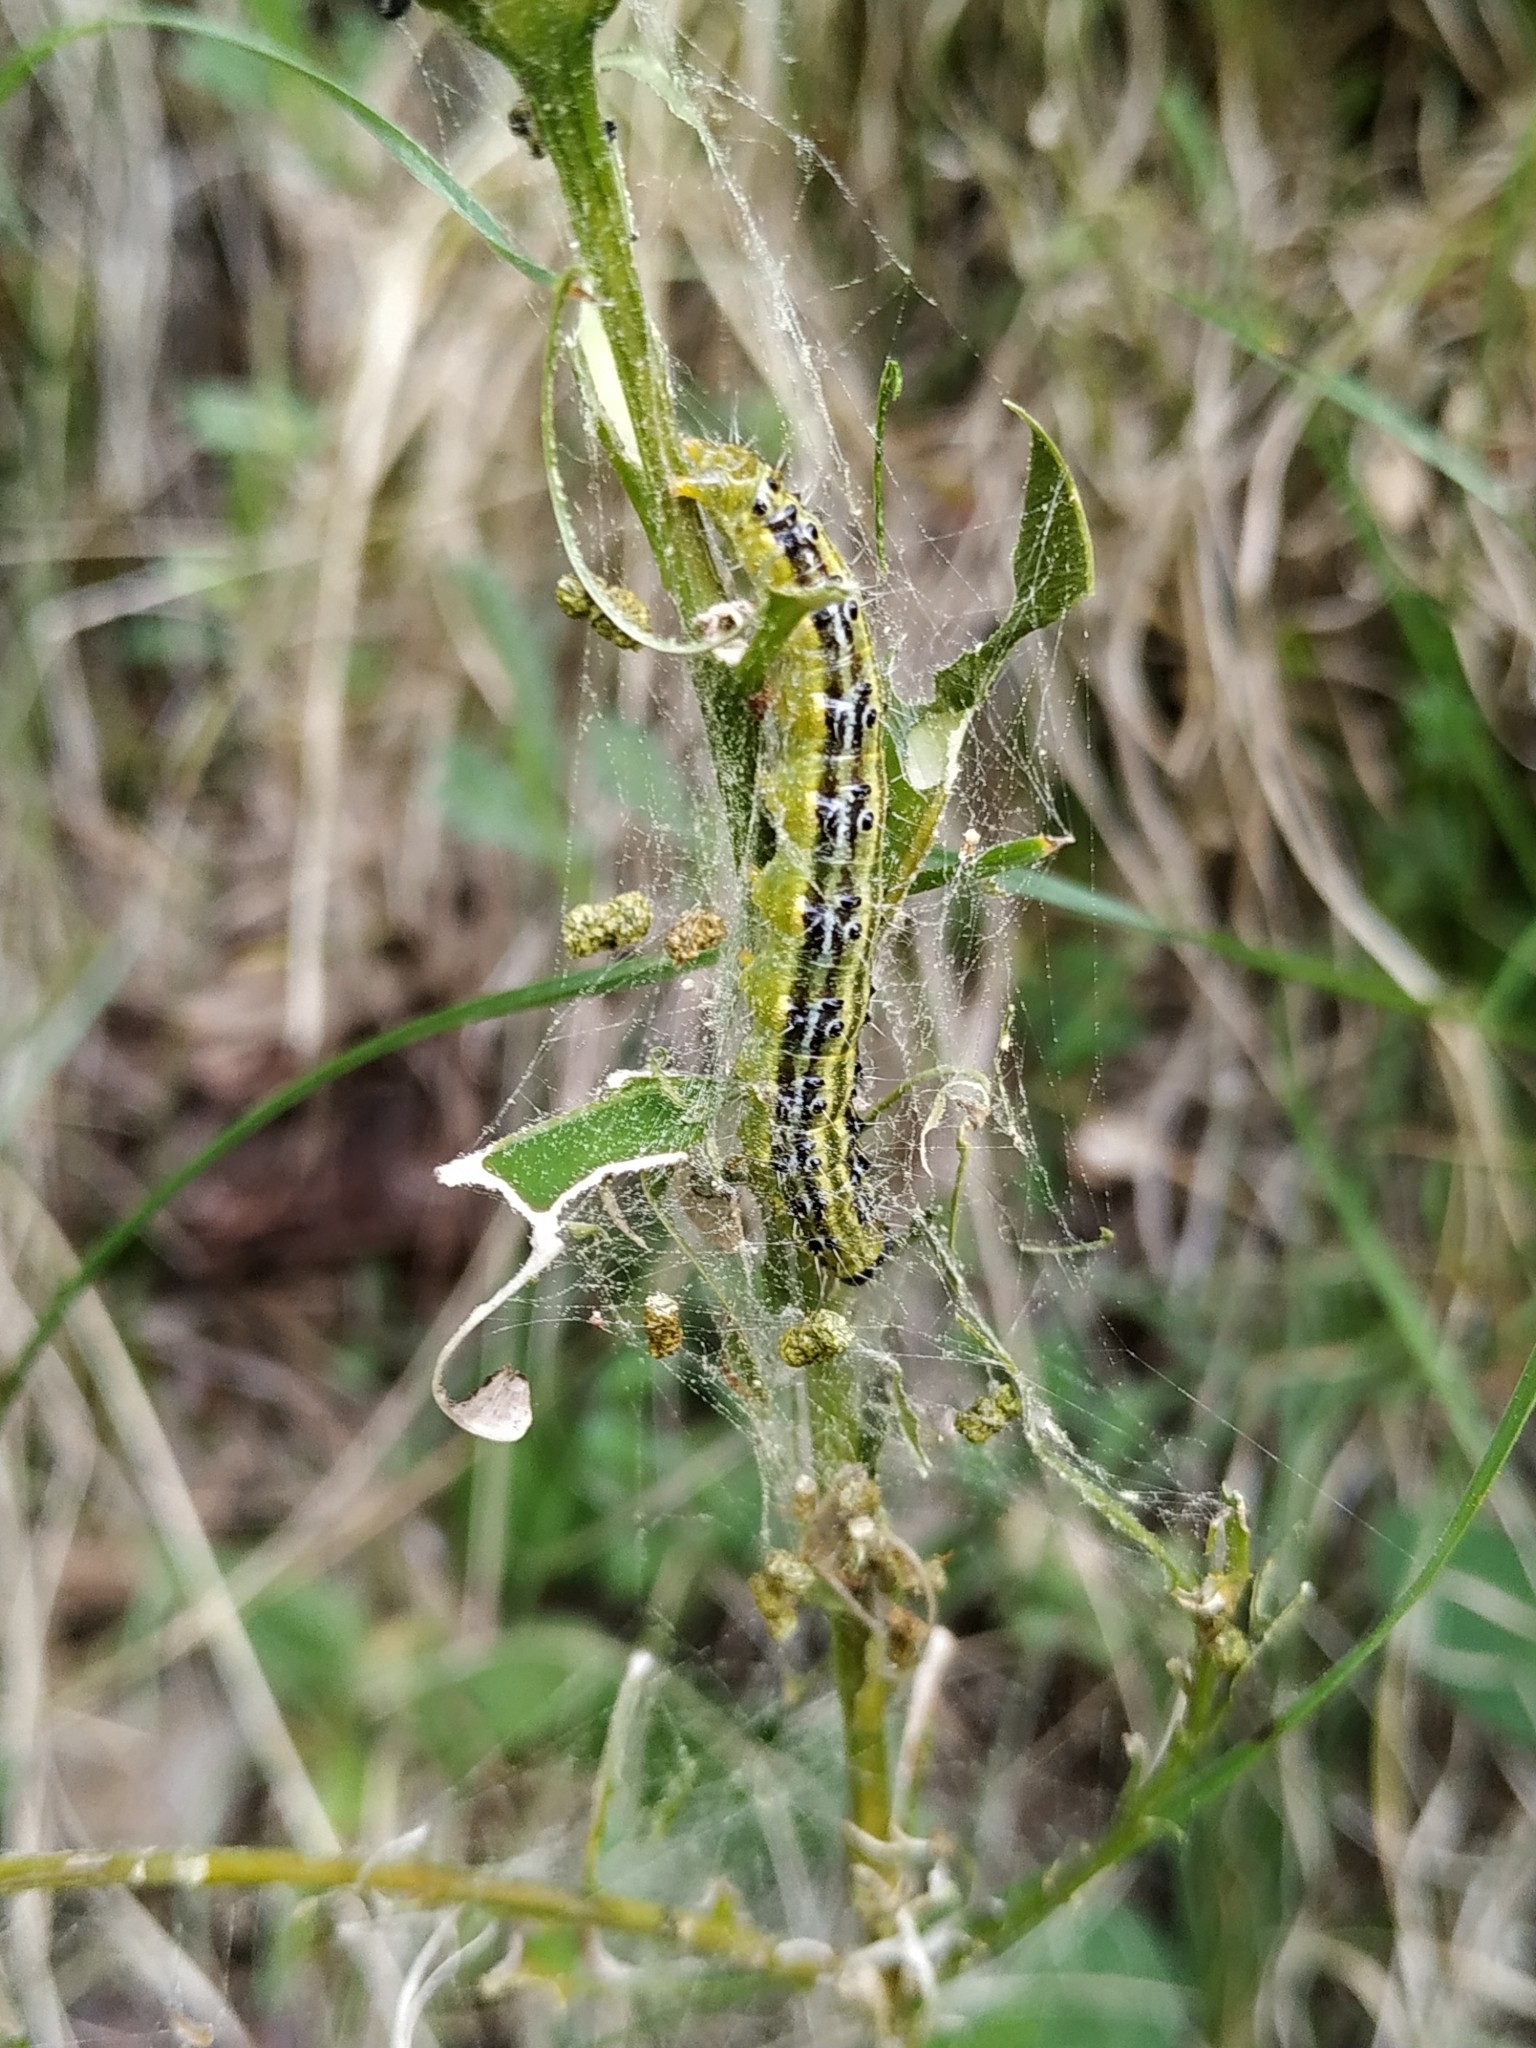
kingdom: Animalia
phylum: Arthropoda
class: Insecta
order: Lepidoptera
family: Crambidae
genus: Cydalima
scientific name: Cydalima perspectalis
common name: Box tree moth
